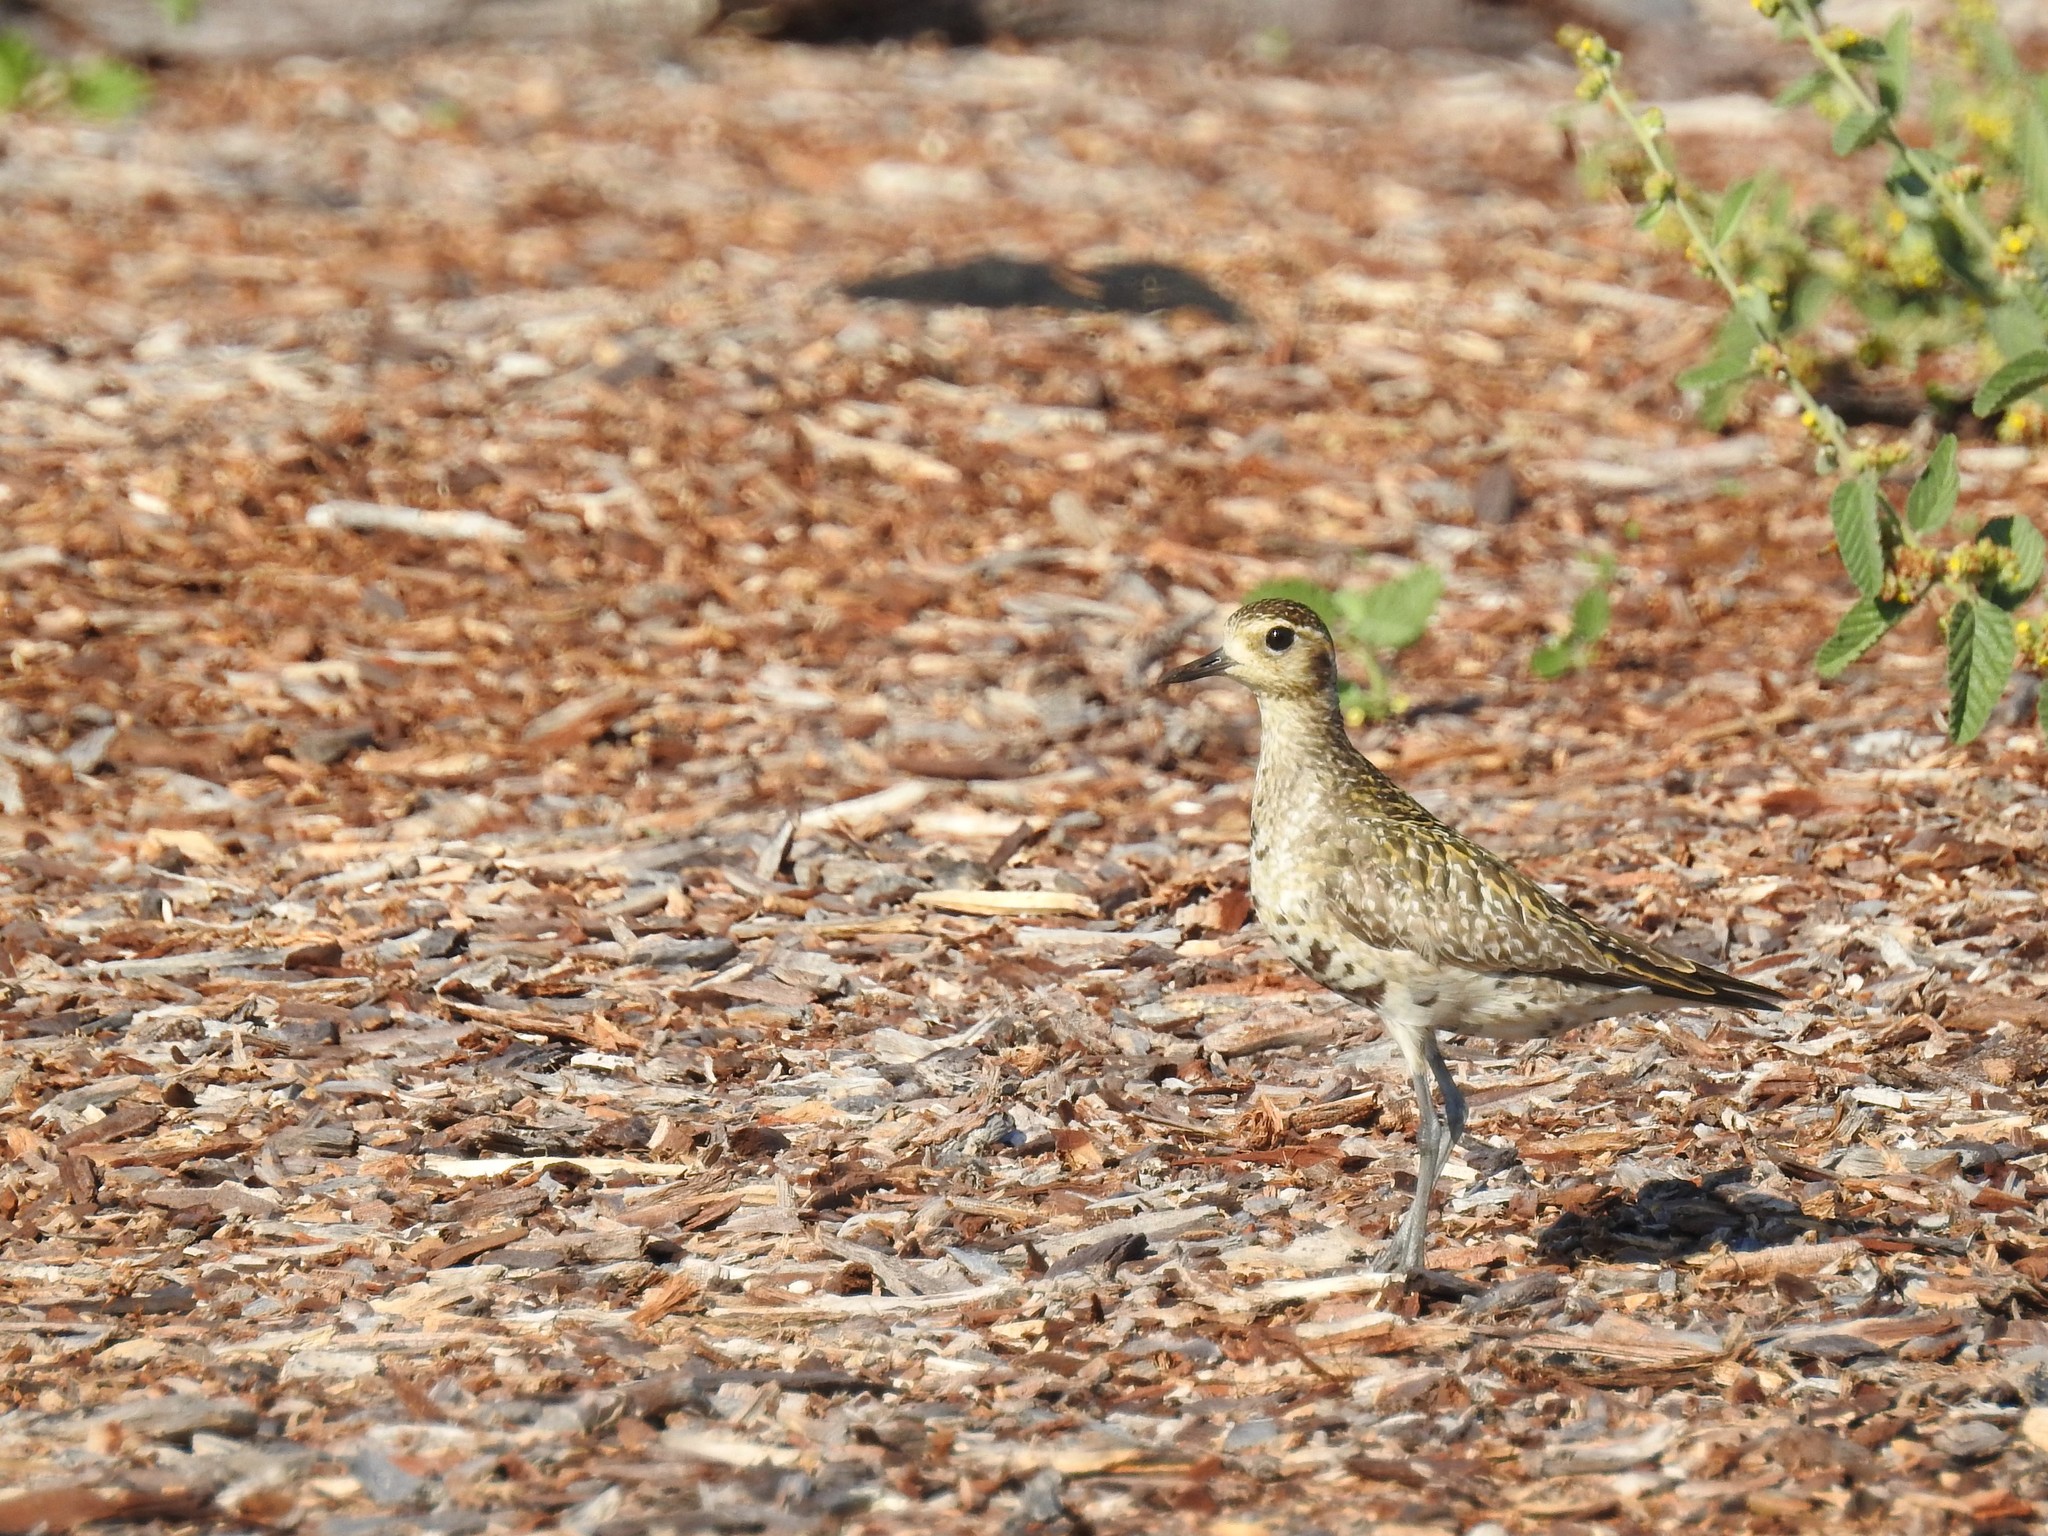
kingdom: Animalia
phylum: Chordata
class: Aves
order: Charadriiformes
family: Charadriidae
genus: Pluvialis
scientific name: Pluvialis fulva
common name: Pacific golden plover
